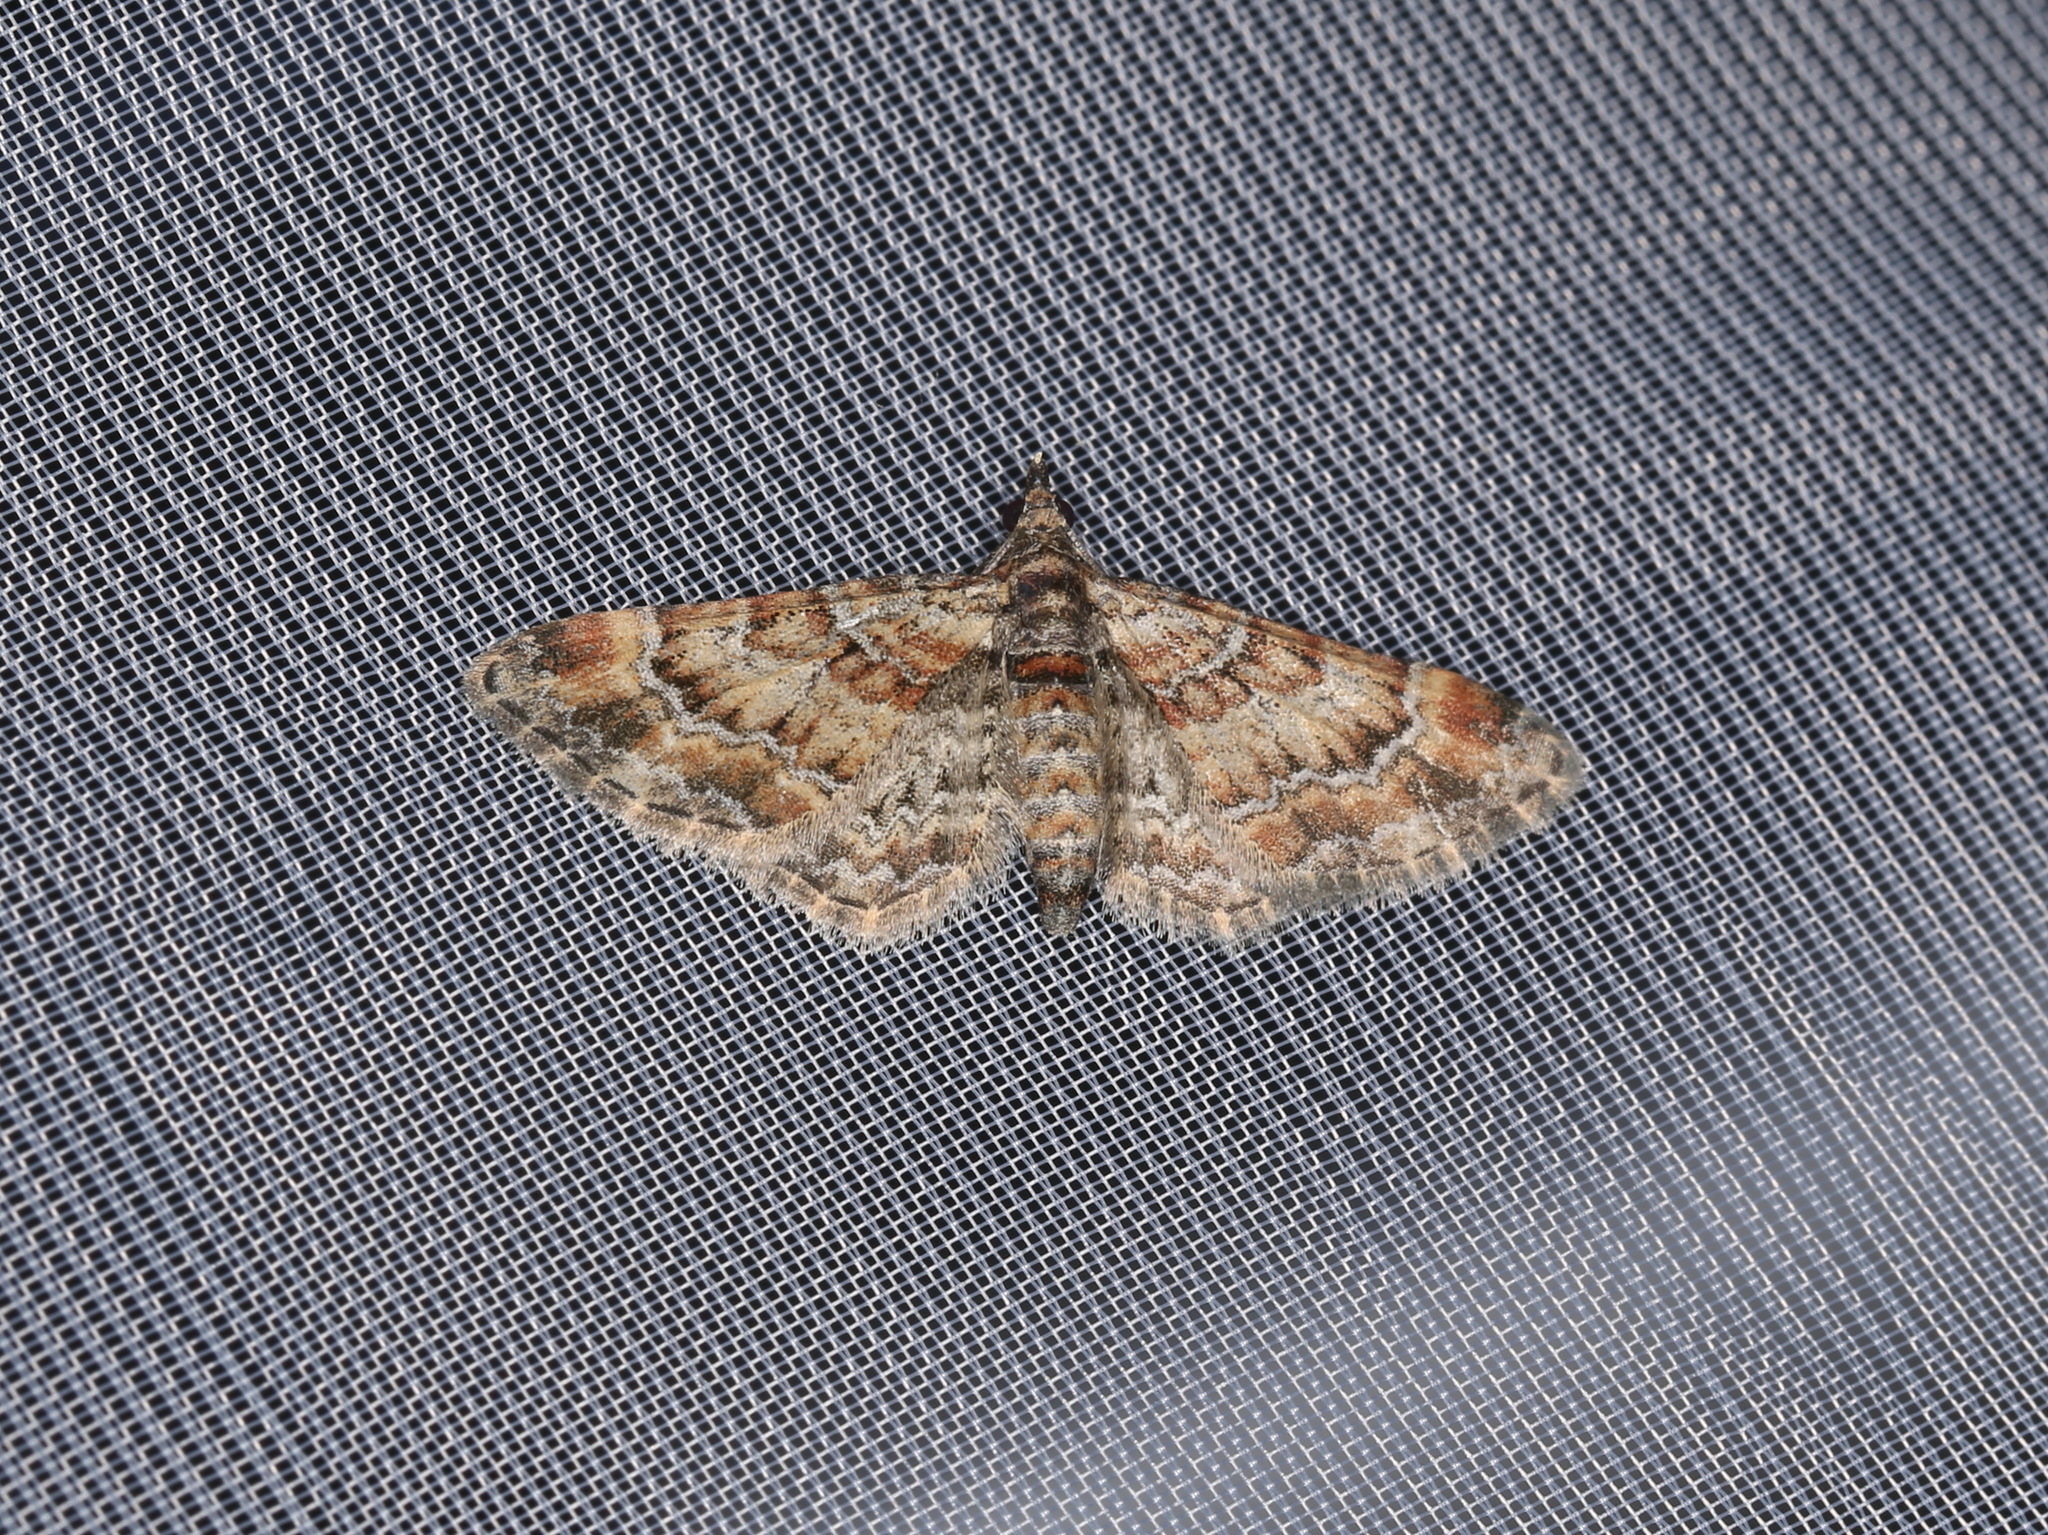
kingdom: Animalia
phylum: Arthropoda
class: Insecta
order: Lepidoptera
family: Geometridae
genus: Gymnoscelis
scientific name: Gymnoscelis rufifasciata
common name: Double-striped pug
